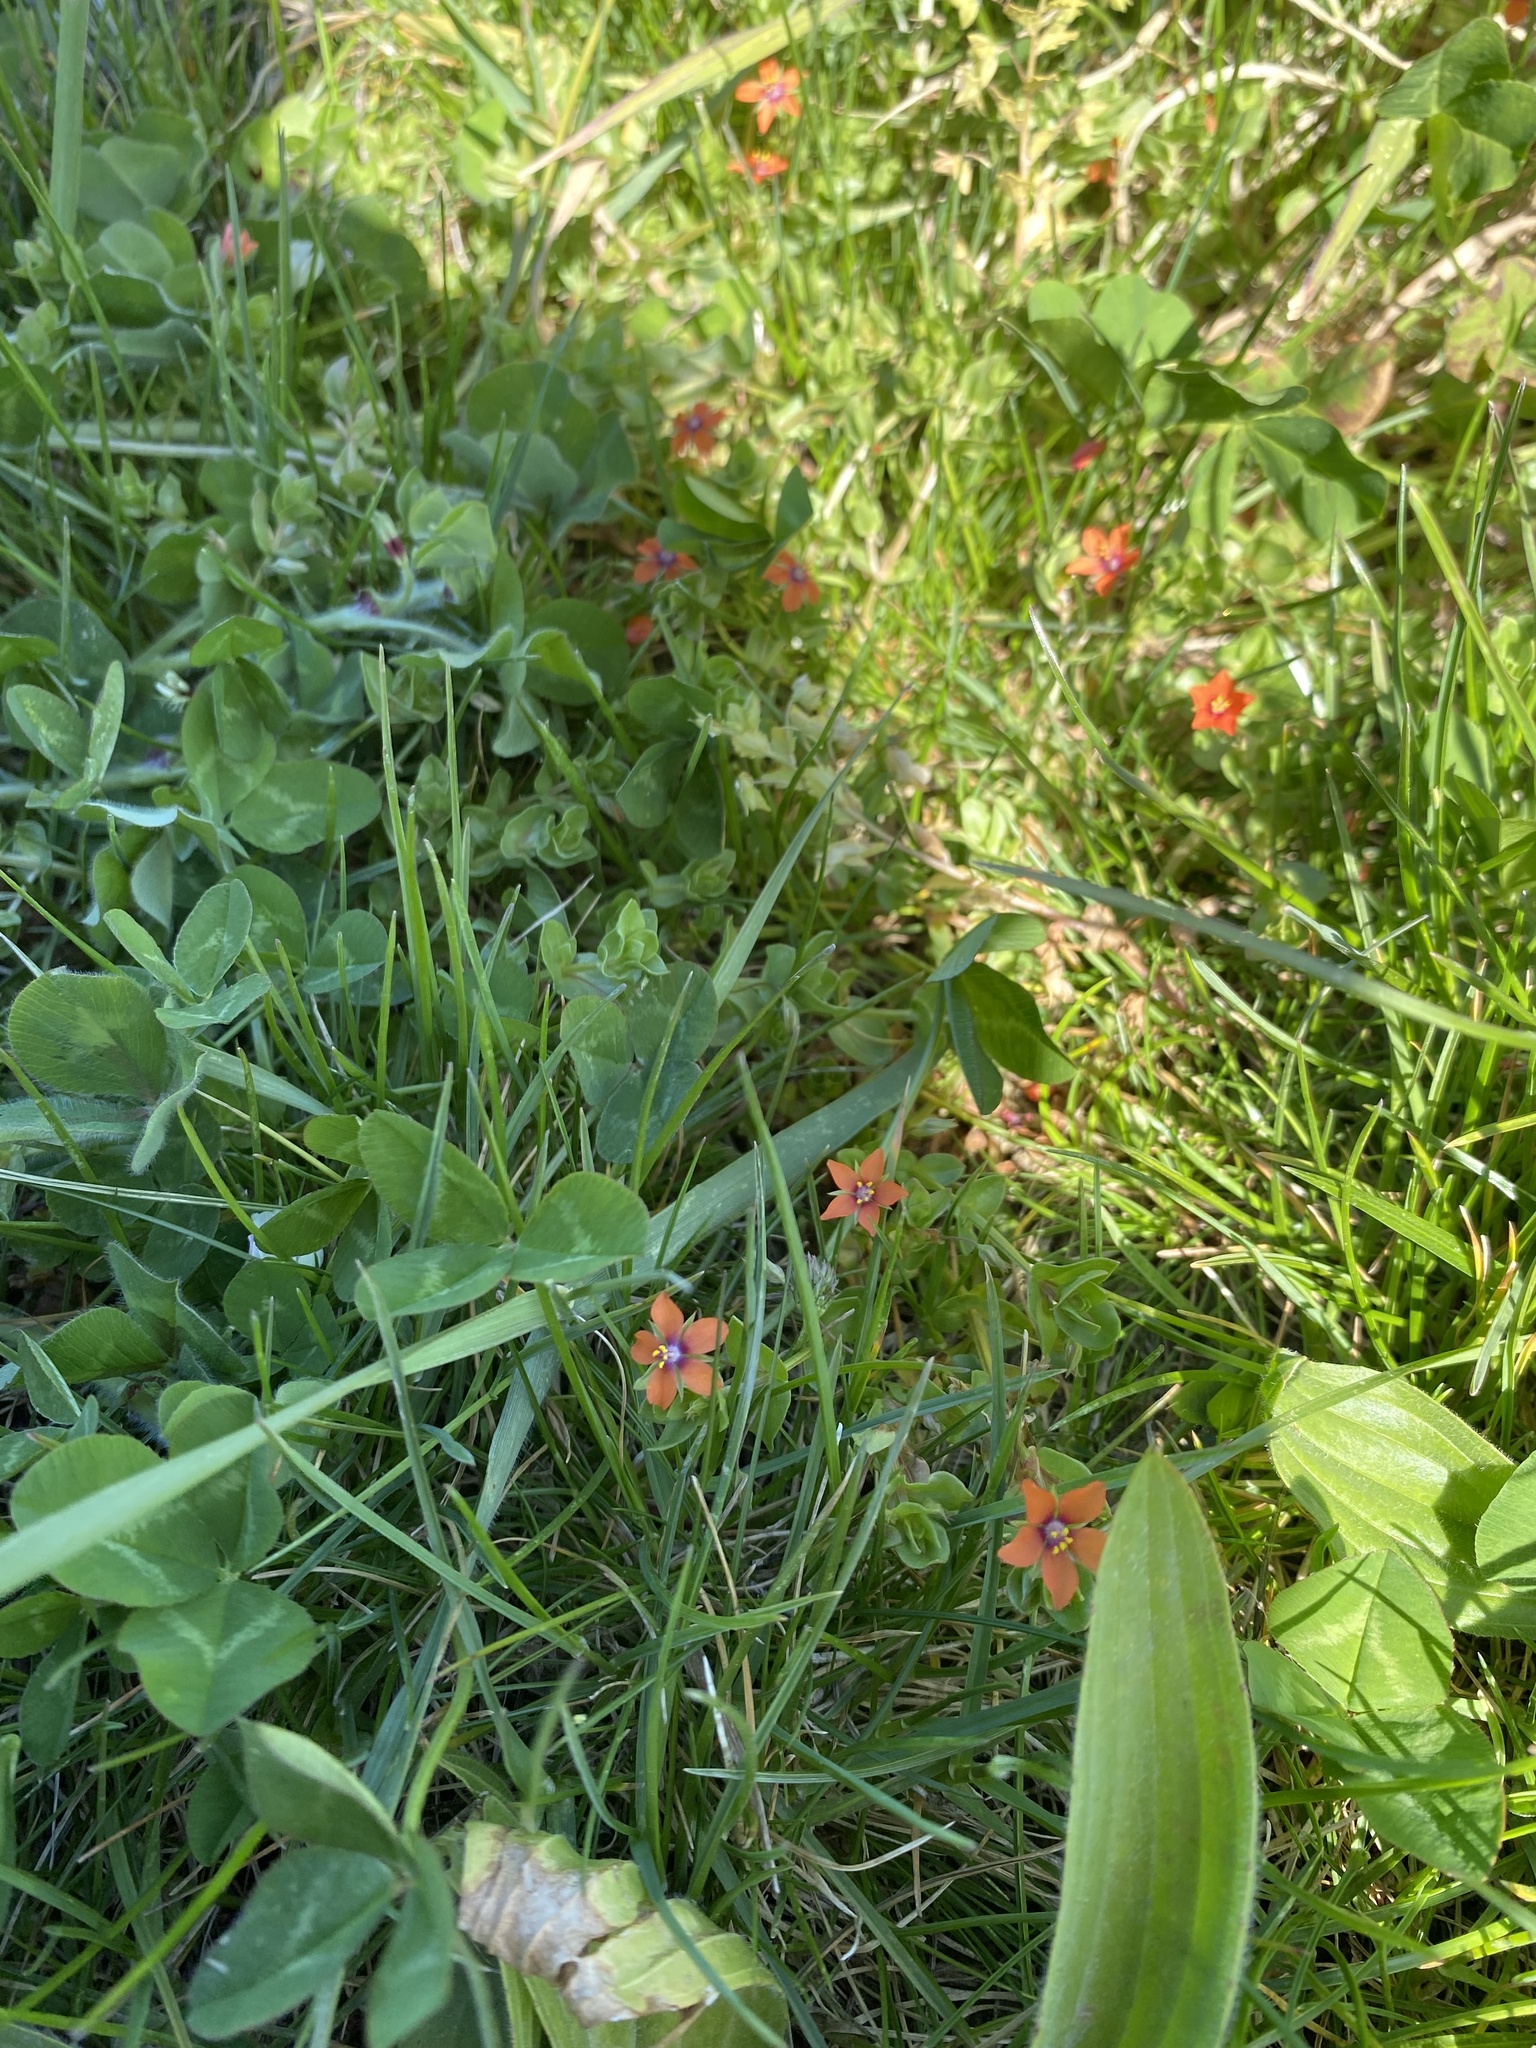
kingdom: Plantae
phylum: Tracheophyta
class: Magnoliopsida
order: Ericales
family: Primulaceae
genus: Lysimachia
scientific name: Lysimachia arvensis
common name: Scarlet pimpernel
